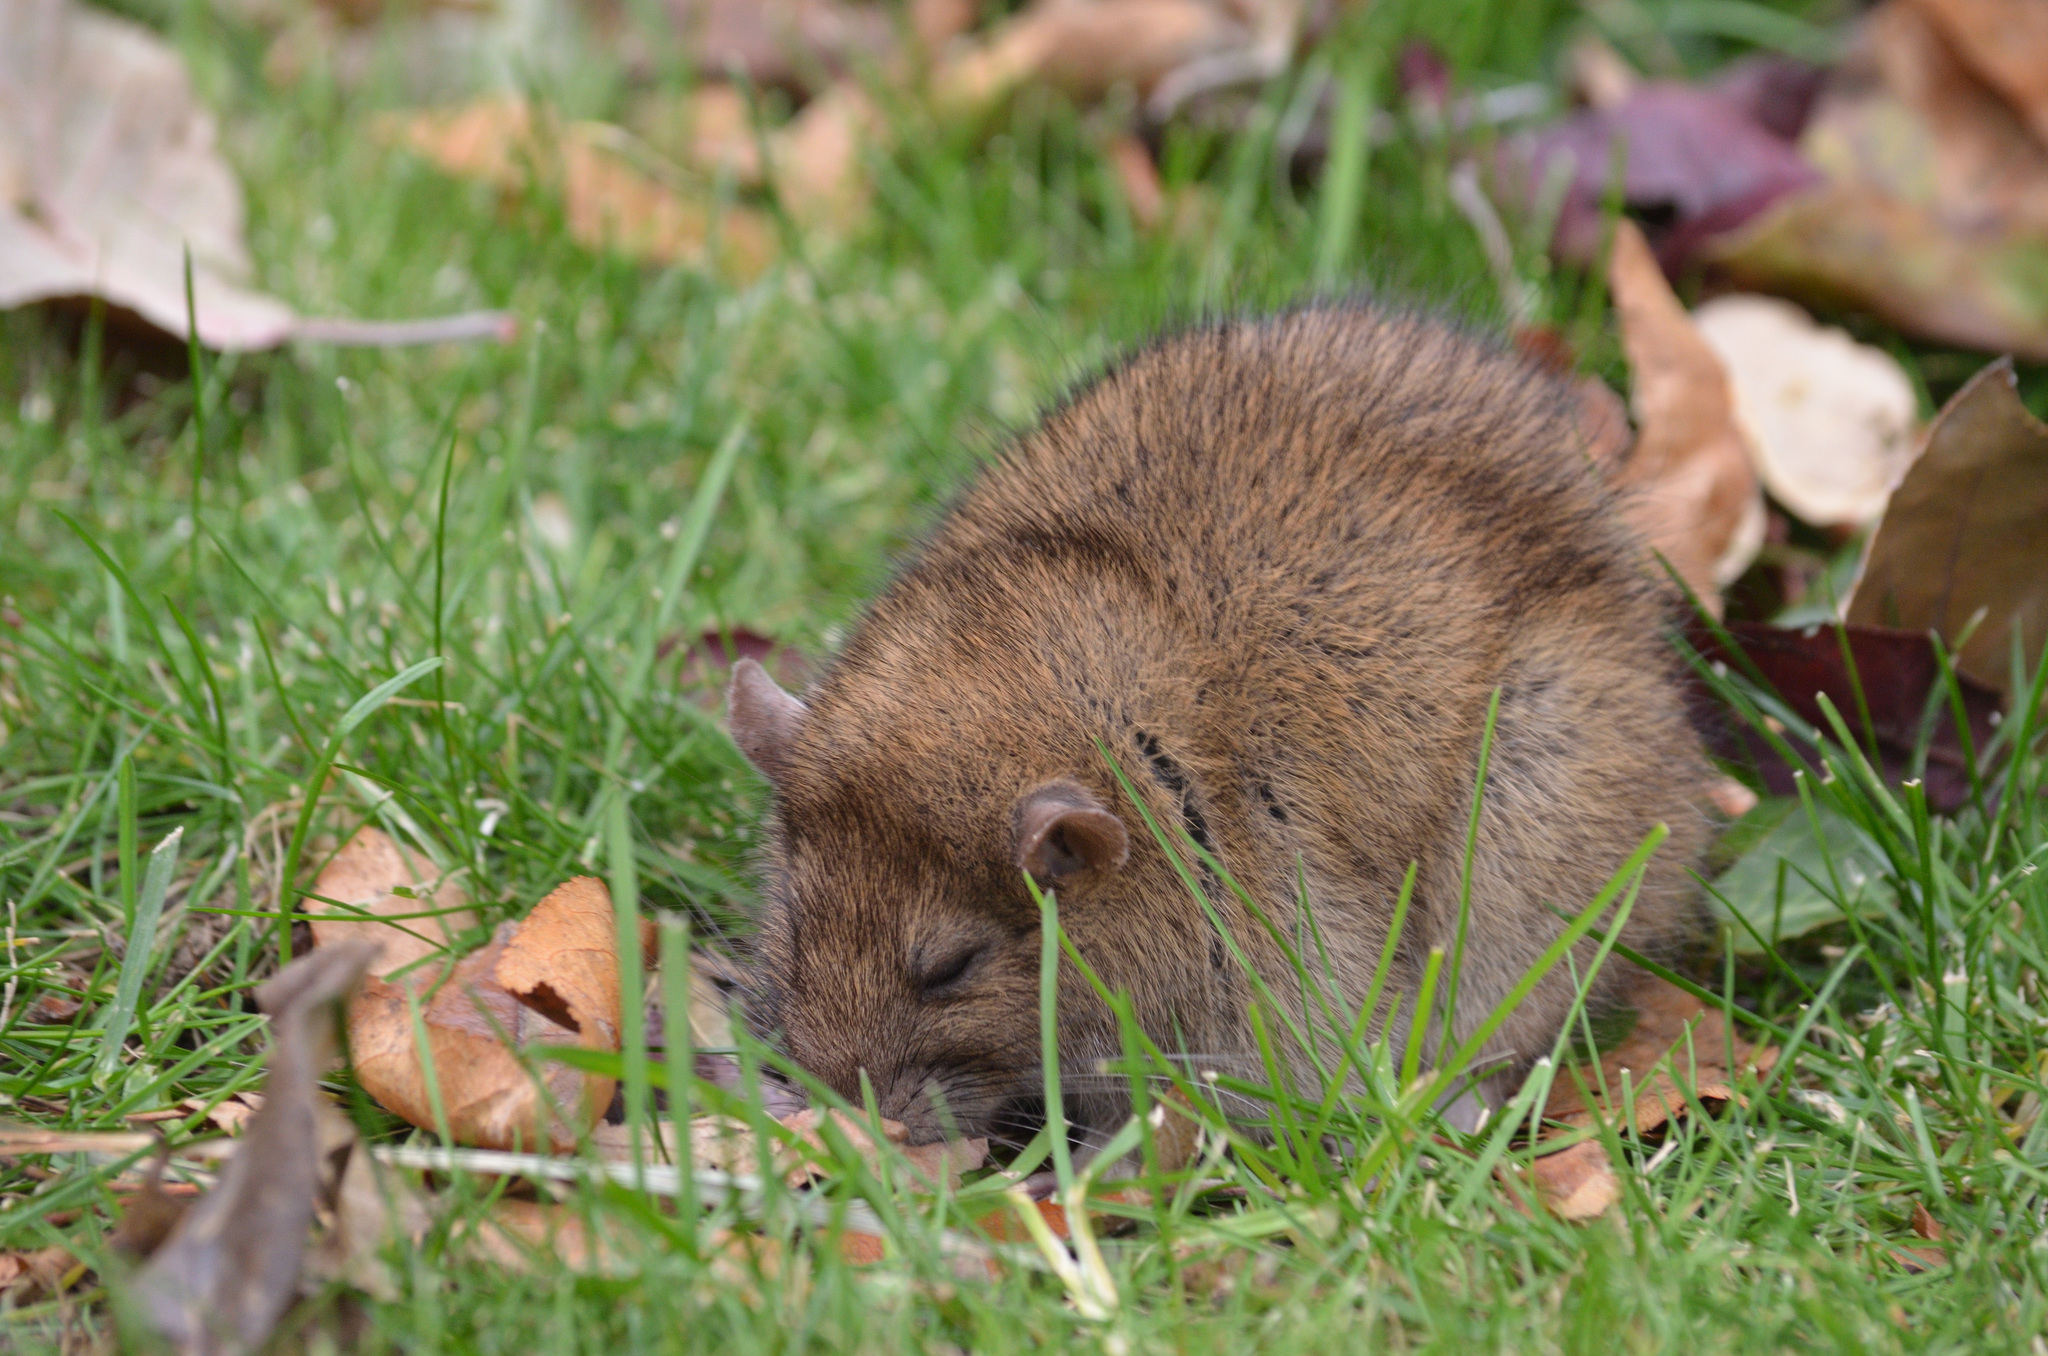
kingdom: Animalia
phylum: Chordata
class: Mammalia
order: Rodentia
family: Muridae
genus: Rattus
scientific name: Rattus norvegicus
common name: Brown rat
